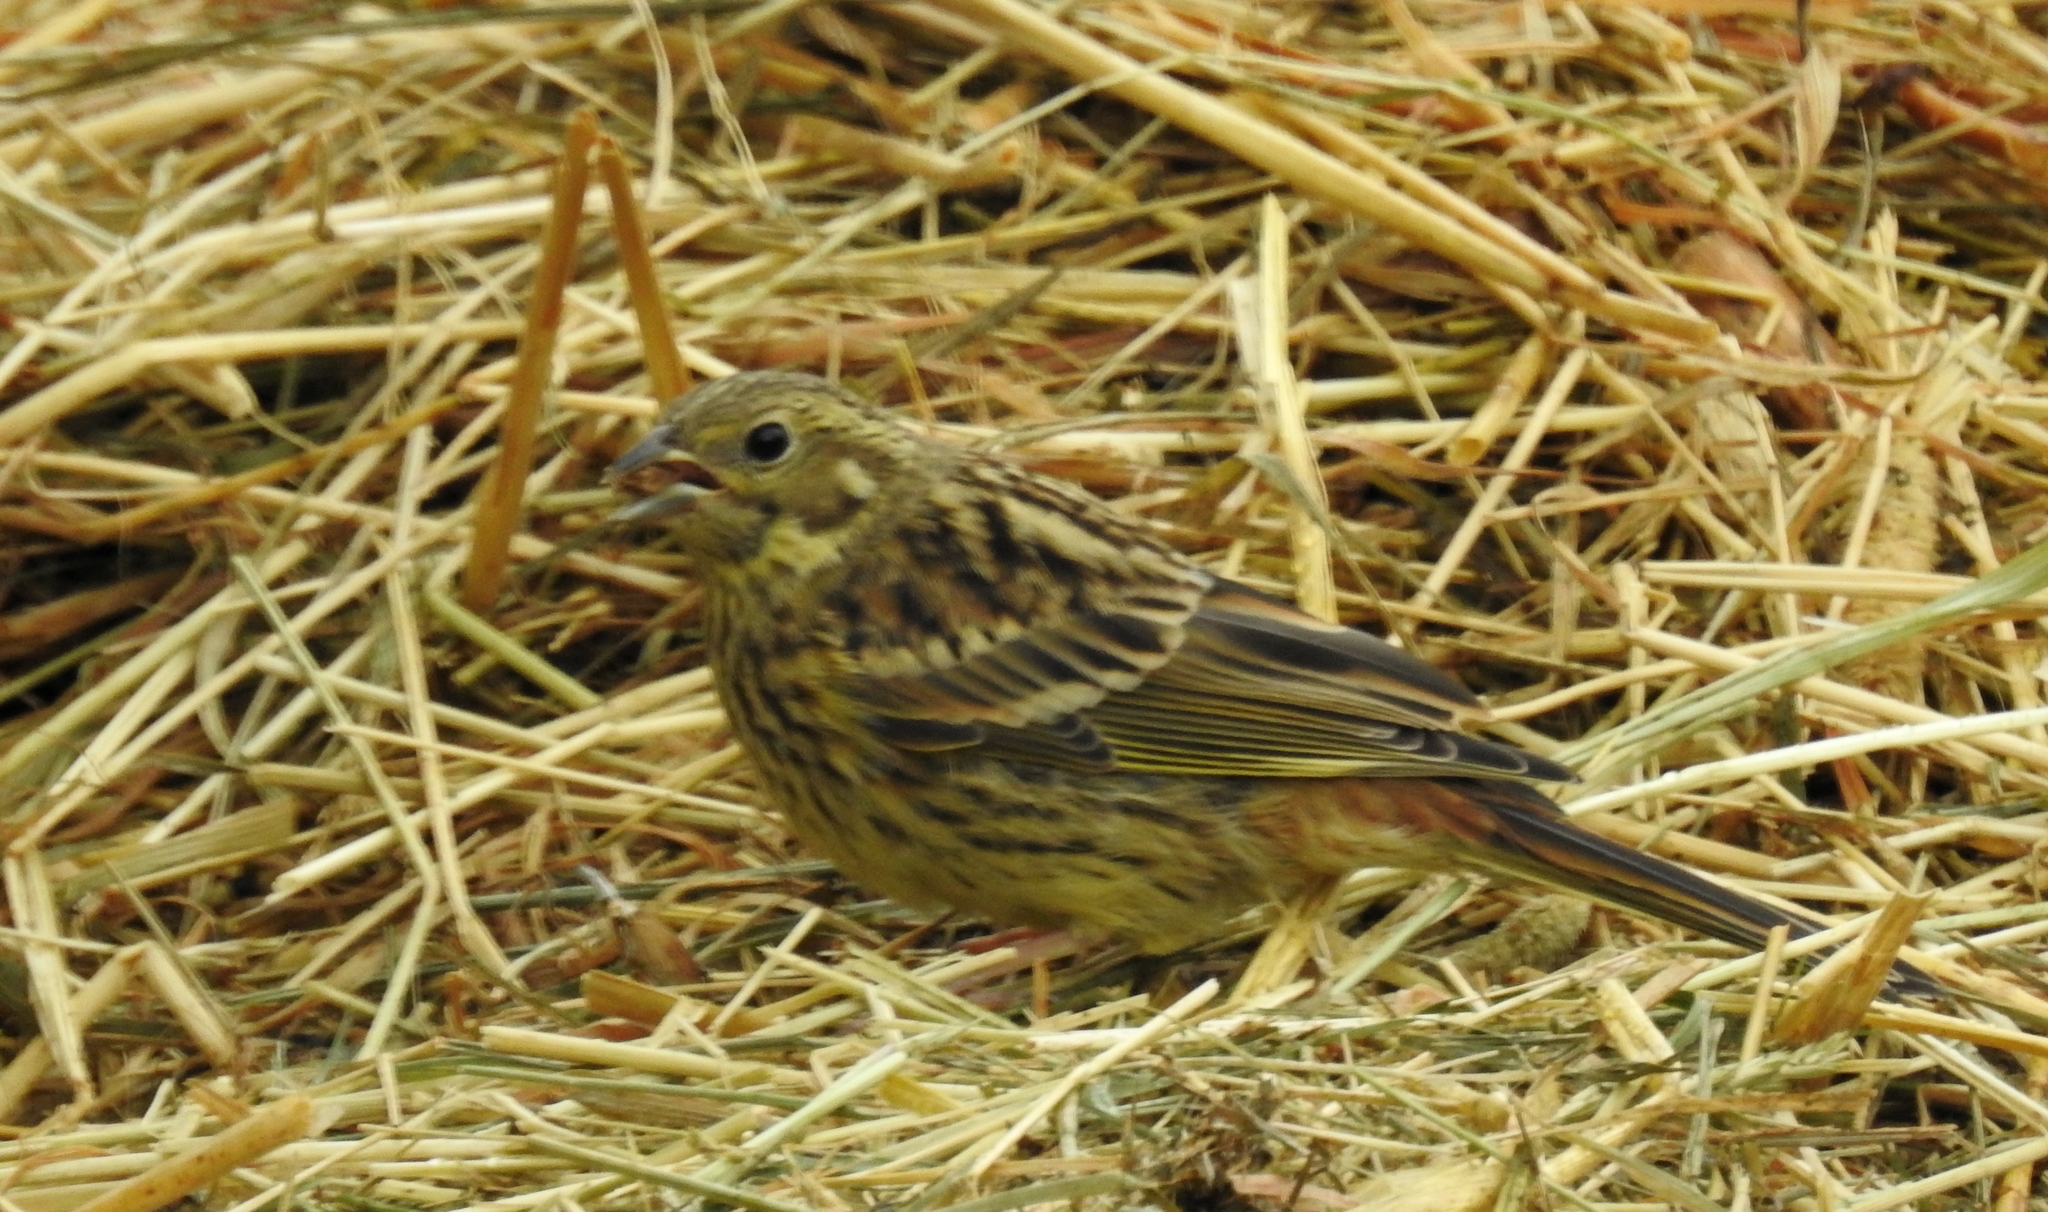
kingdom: Animalia
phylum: Chordata
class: Aves
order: Passeriformes
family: Emberizidae
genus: Emberiza
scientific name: Emberiza citrinella
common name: Yellowhammer
